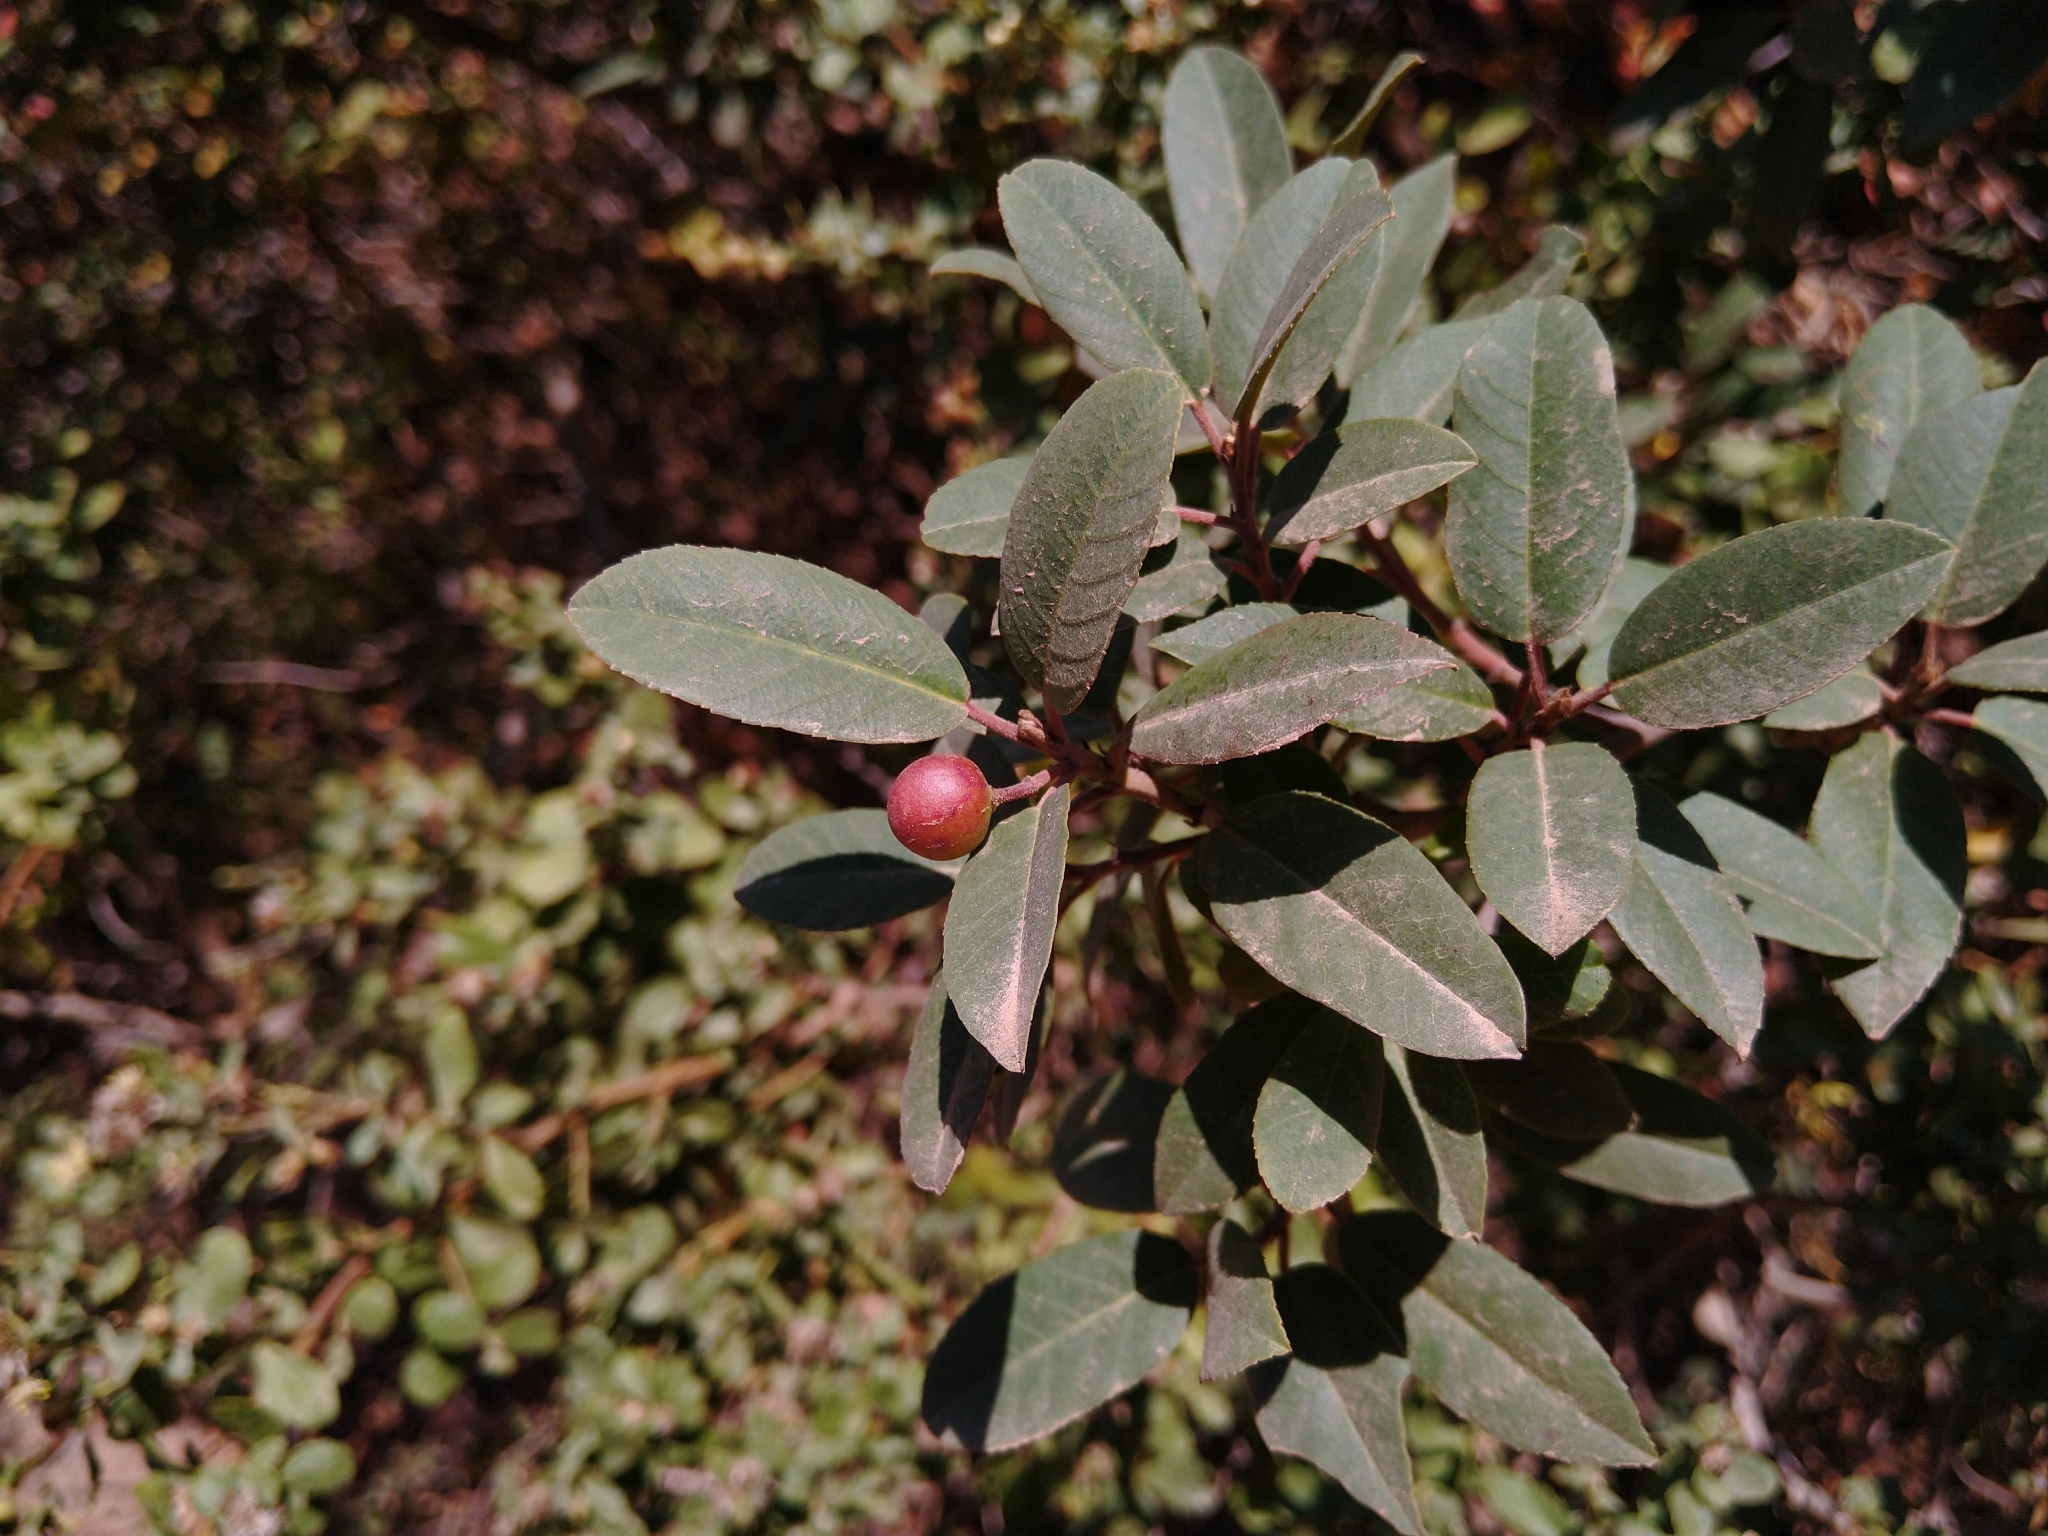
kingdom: Plantae
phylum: Tracheophyta
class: Magnoliopsida
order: Rosales
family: Rhamnaceae
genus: Frangula
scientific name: Frangula californica
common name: California buckthorn
